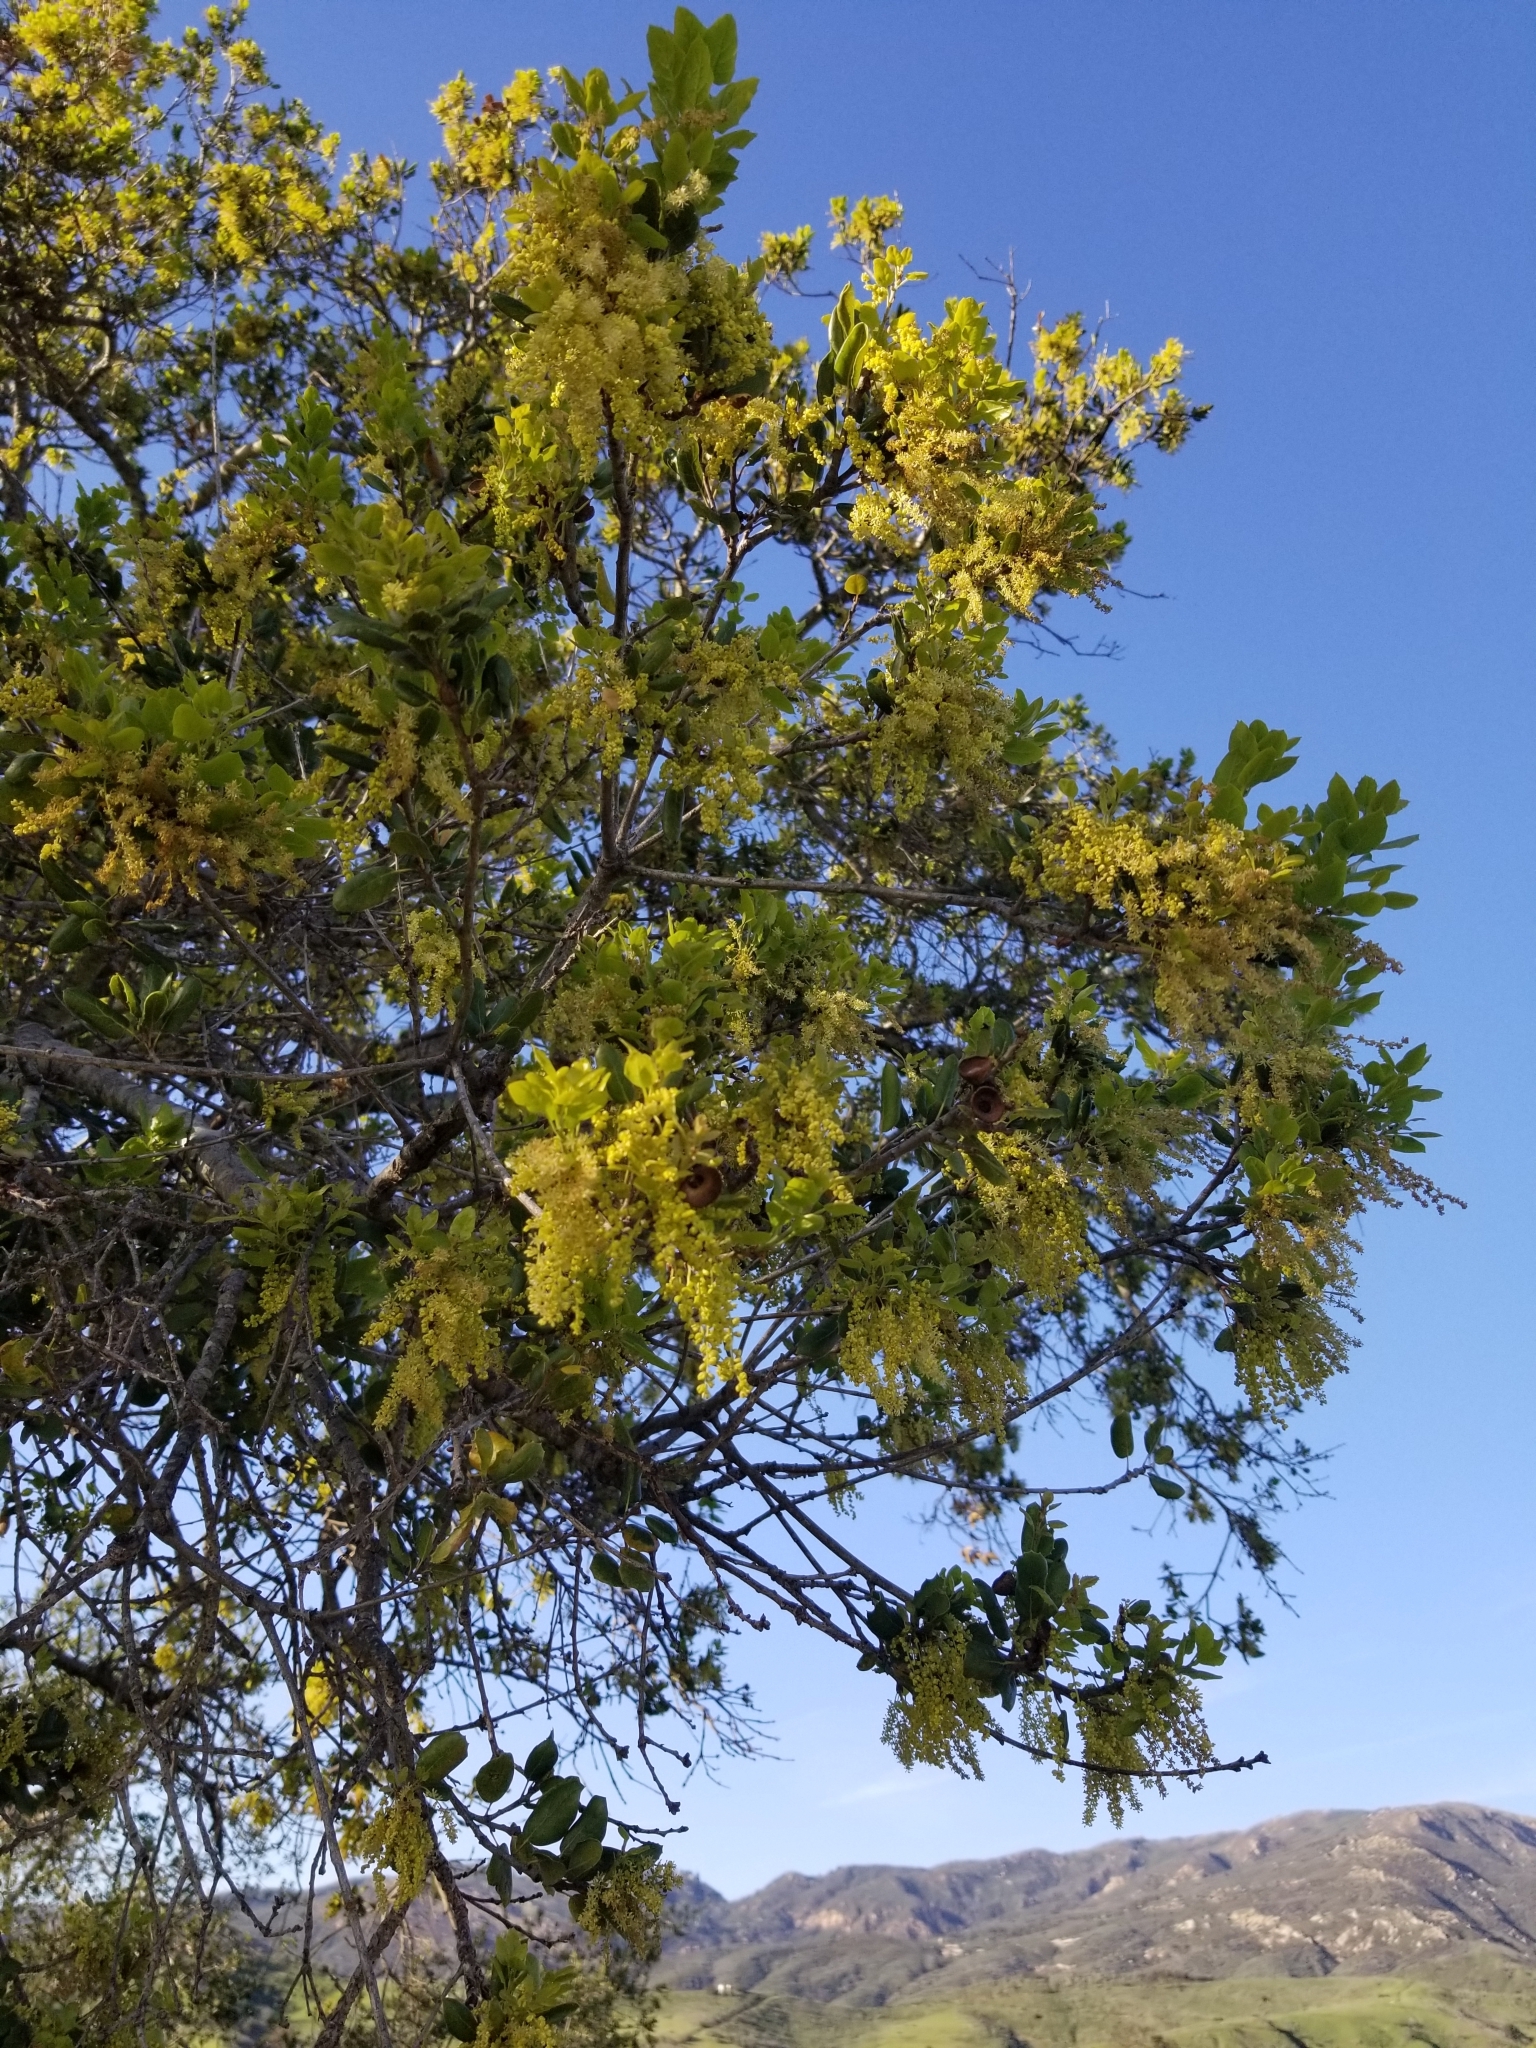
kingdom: Plantae
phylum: Tracheophyta
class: Magnoliopsida
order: Fagales
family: Fagaceae
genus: Quercus
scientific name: Quercus agrifolia
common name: California live oak
